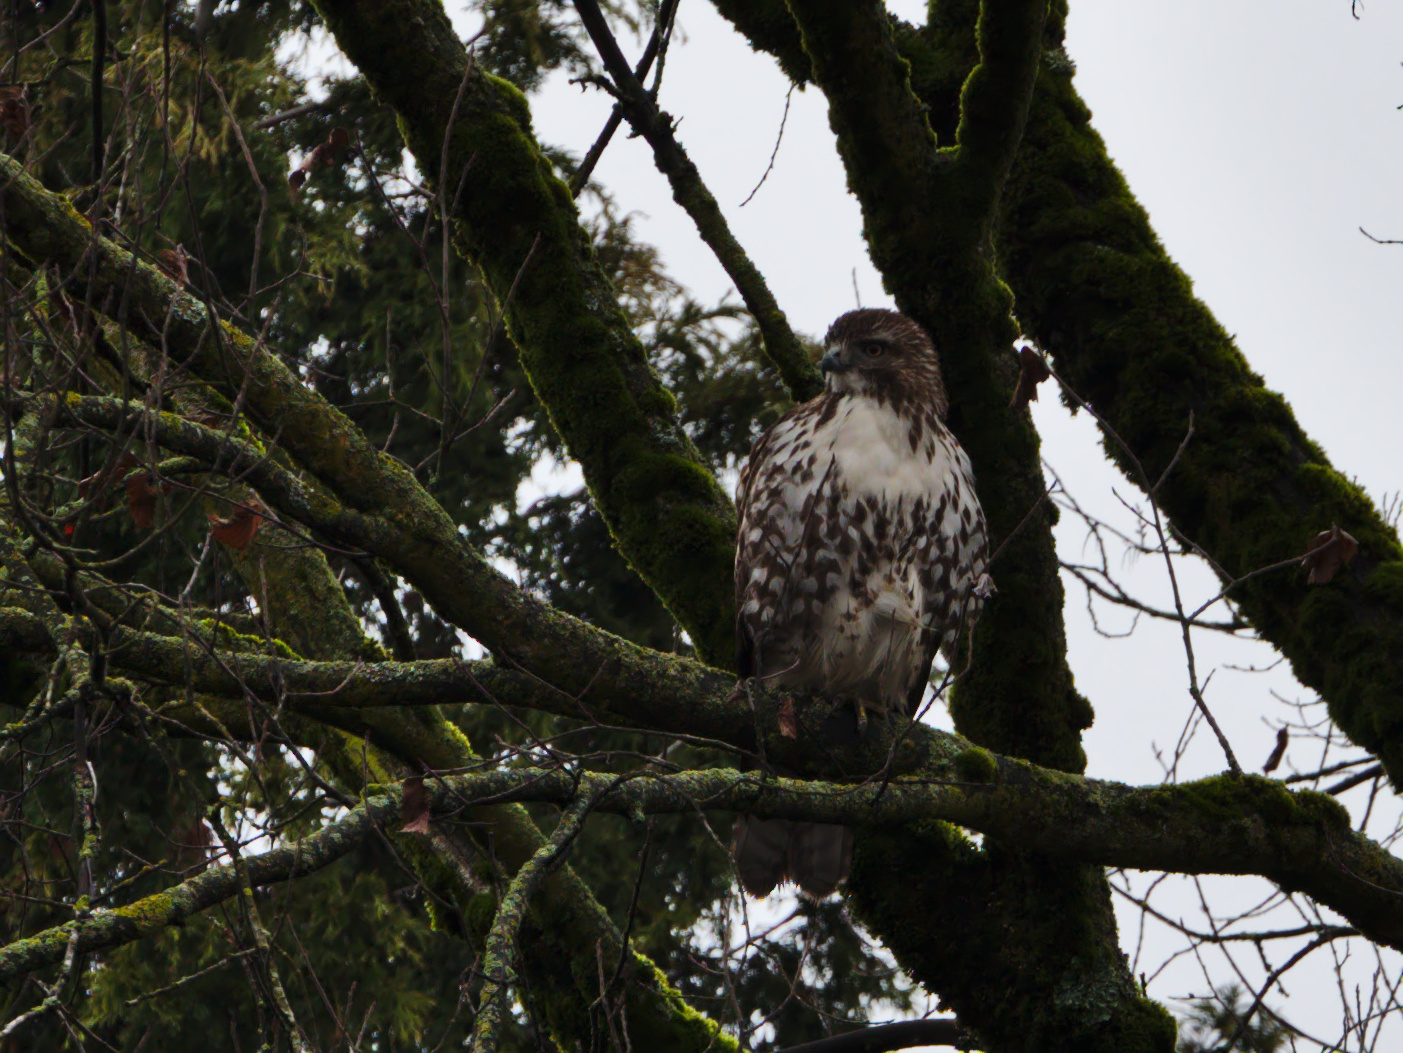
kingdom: Animalia
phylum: Chordata
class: Aves
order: Accipitriformes
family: Accipitridae
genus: Buteo
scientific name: Buteo jamaicensis
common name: Red-tailed hawk
